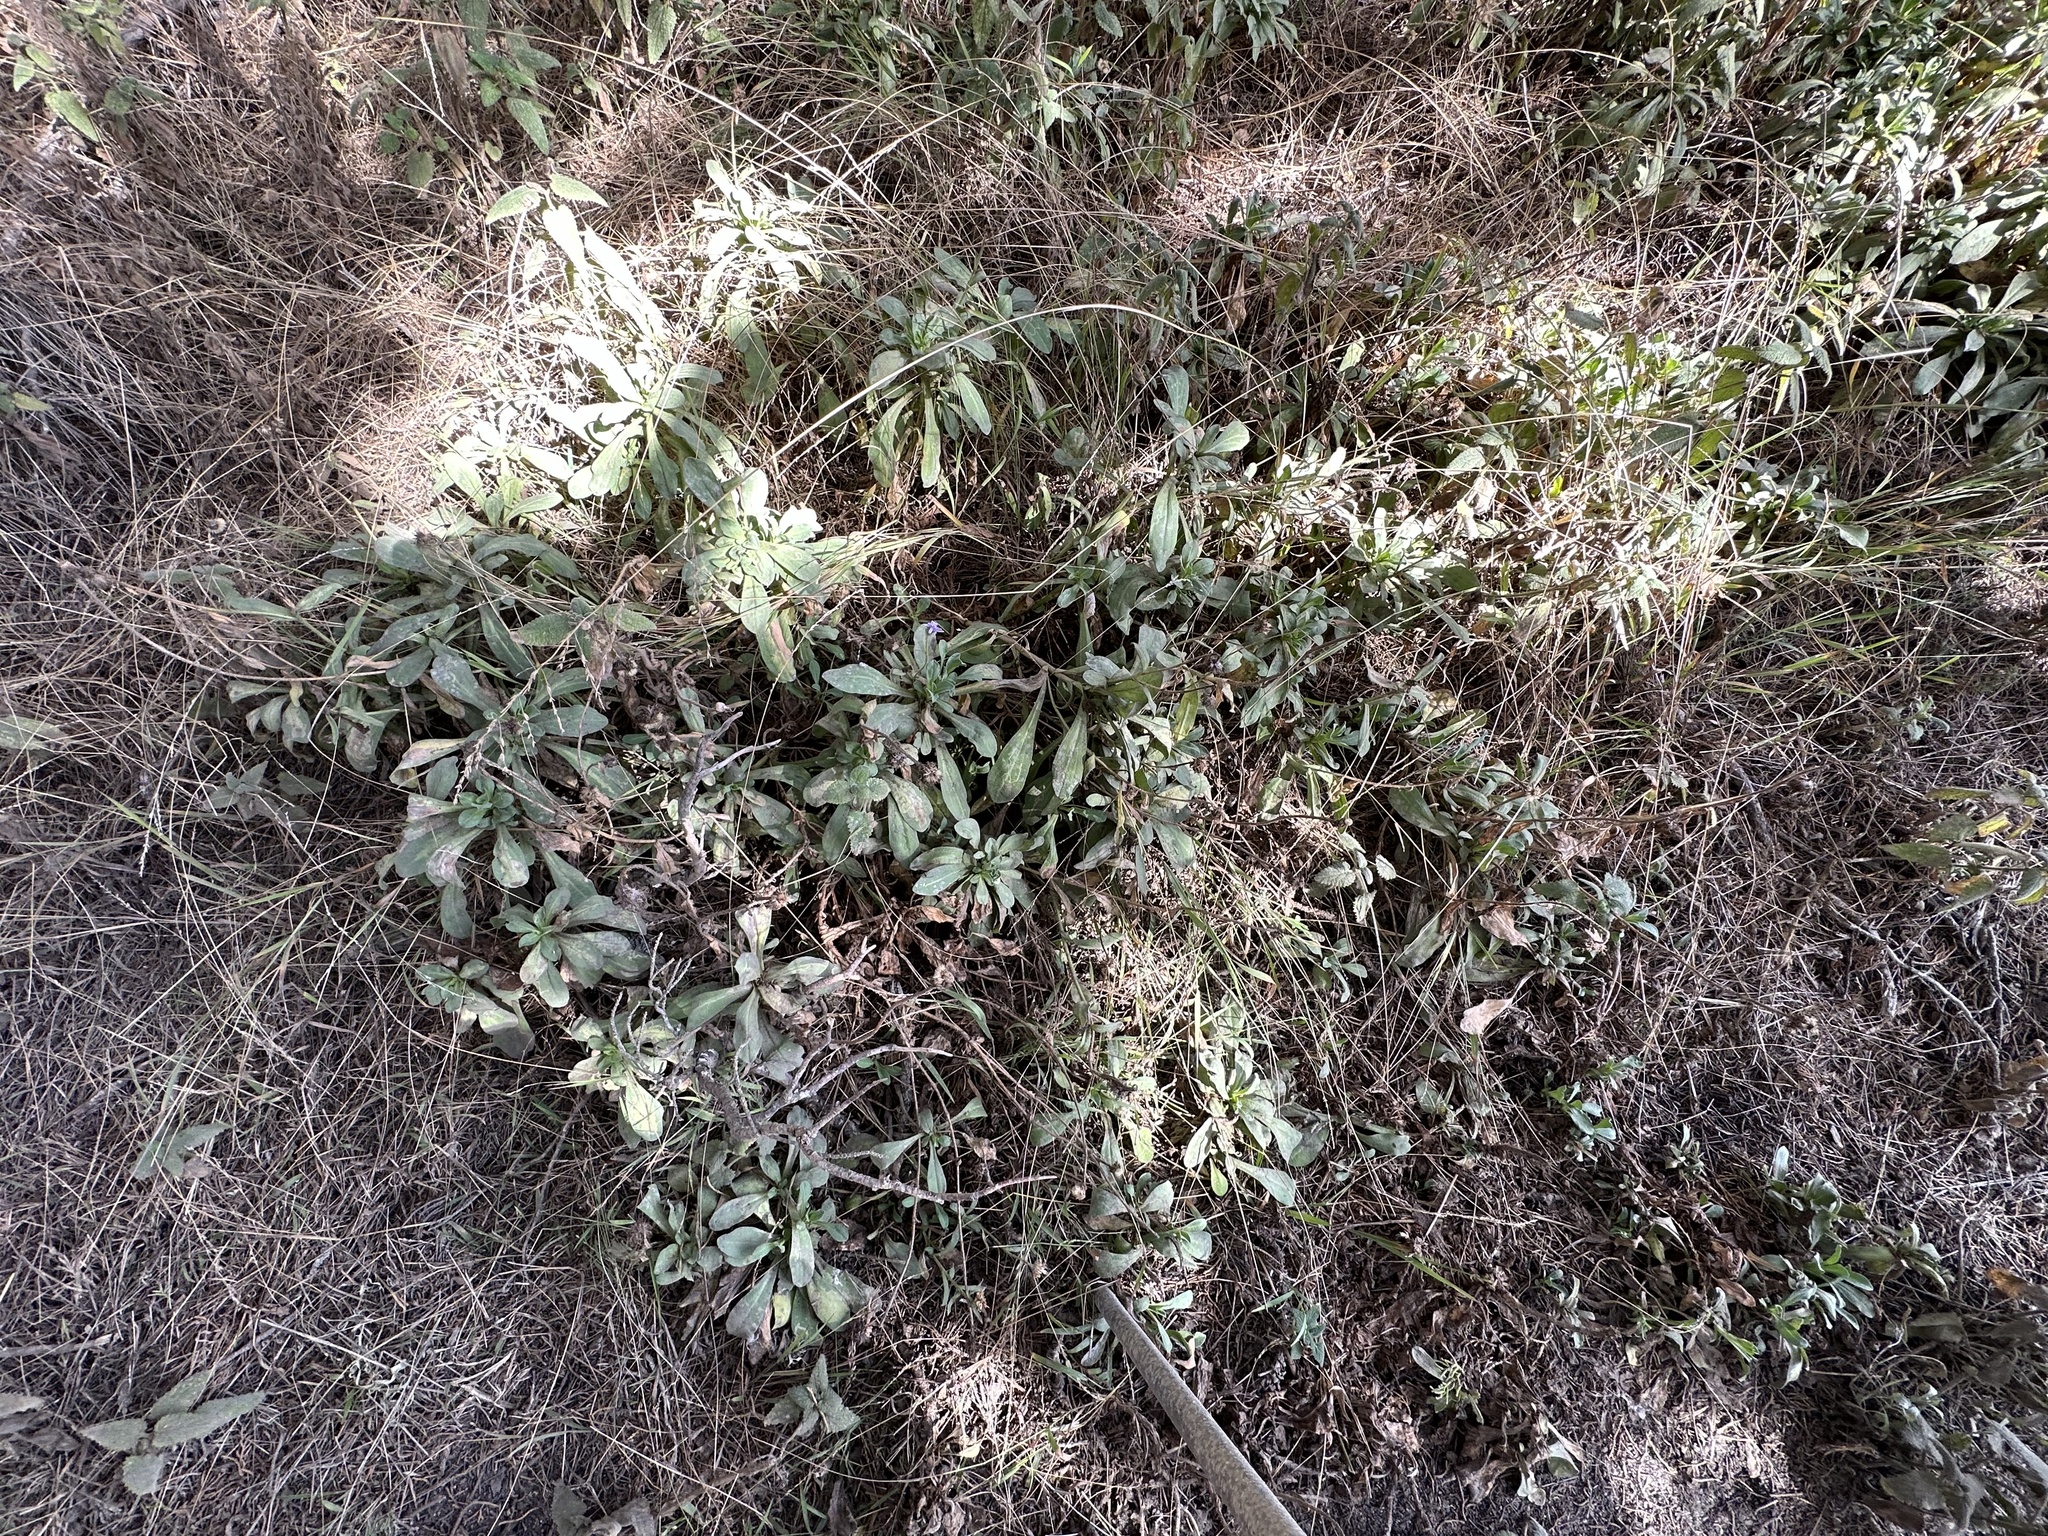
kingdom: Plantae
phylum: Tracheophyta
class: Magnoliopsida
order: Asterales
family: Asteraceae
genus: Corethrogyne
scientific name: Corethrogyne filaginifolia
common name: Sand-aster
